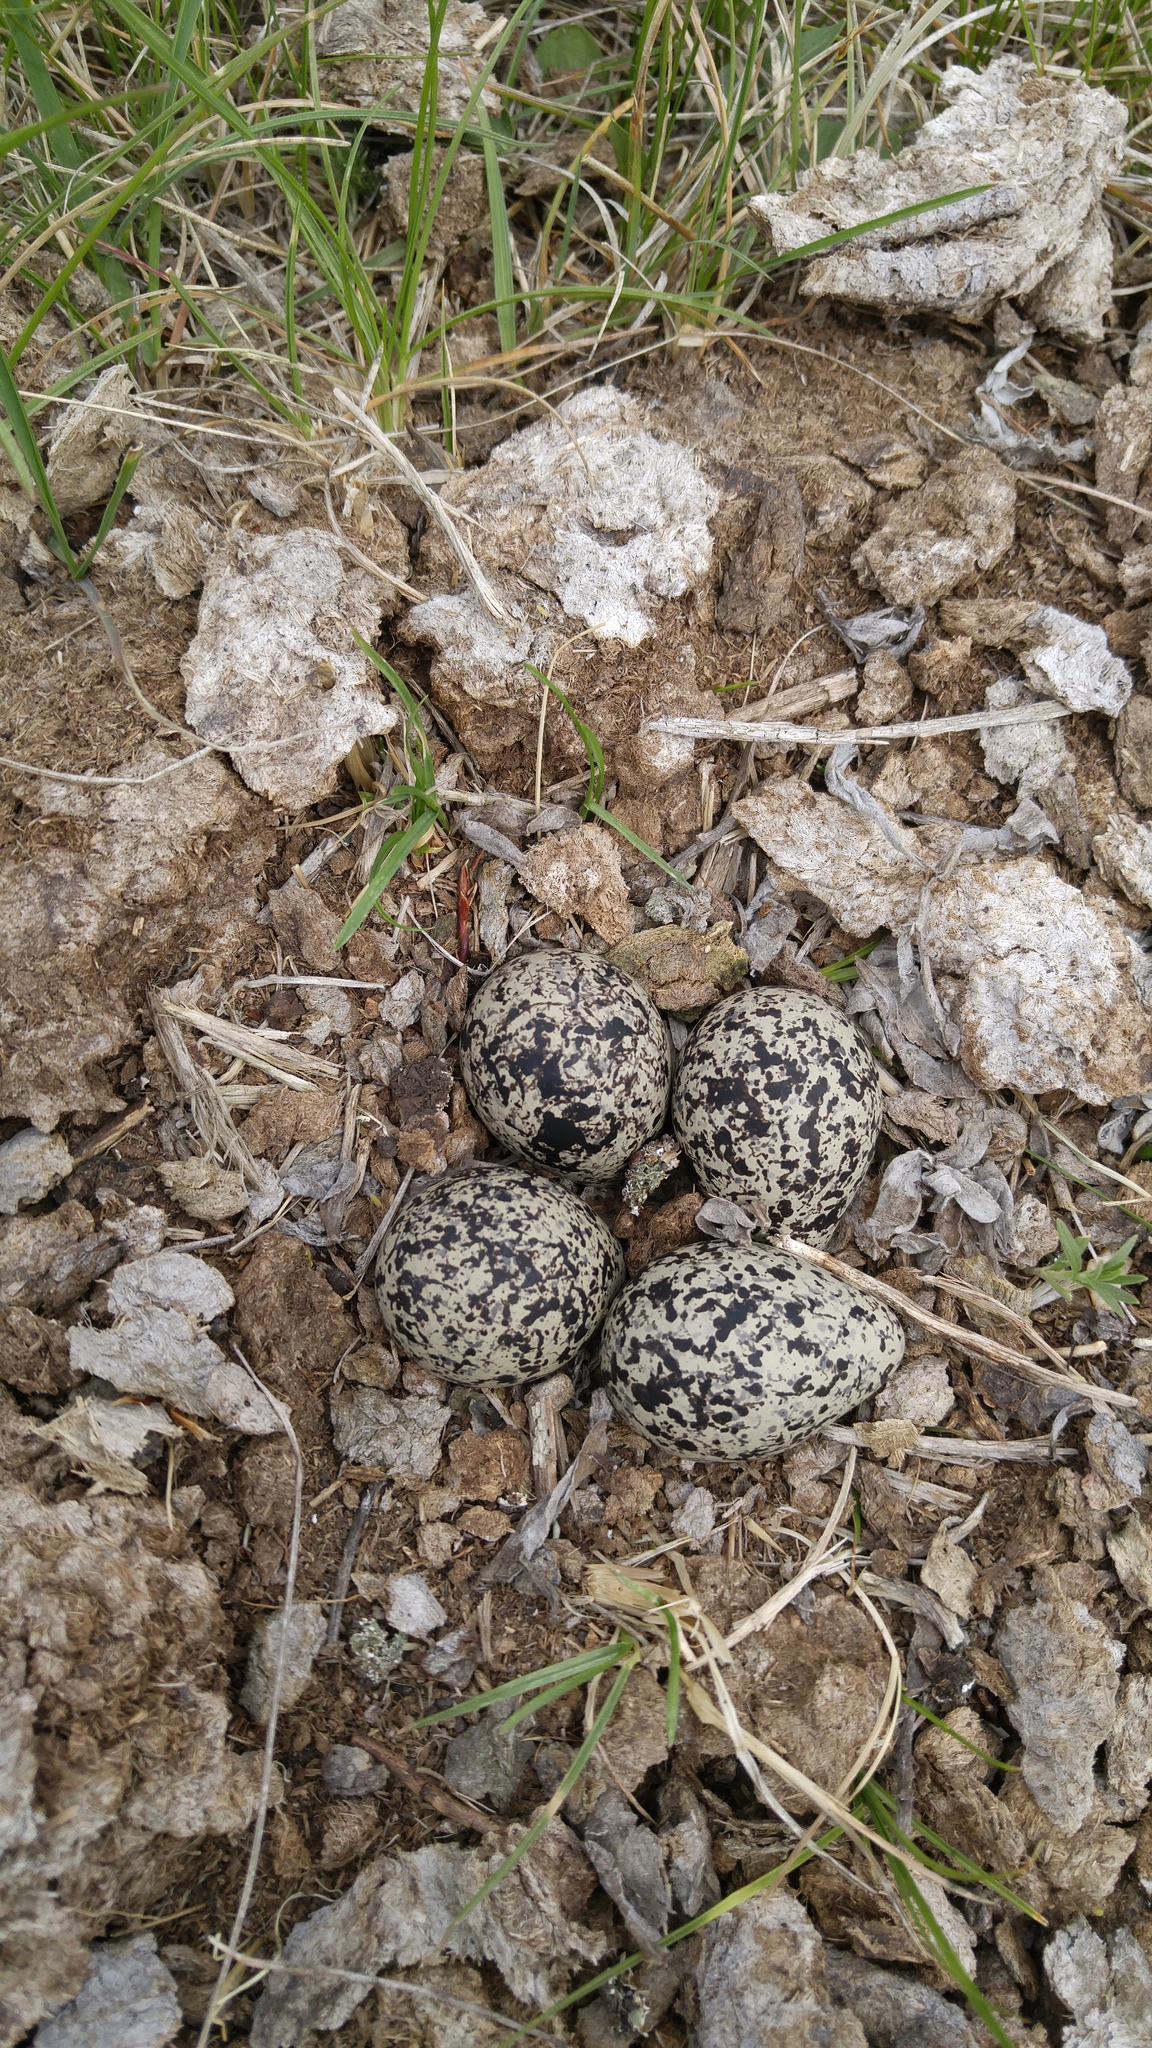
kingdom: Animalia
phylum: Chordata
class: Aves
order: Charadriiformes
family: Charadriidae
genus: Charadrius
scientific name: Charadrius vociferus
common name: Killdeer
